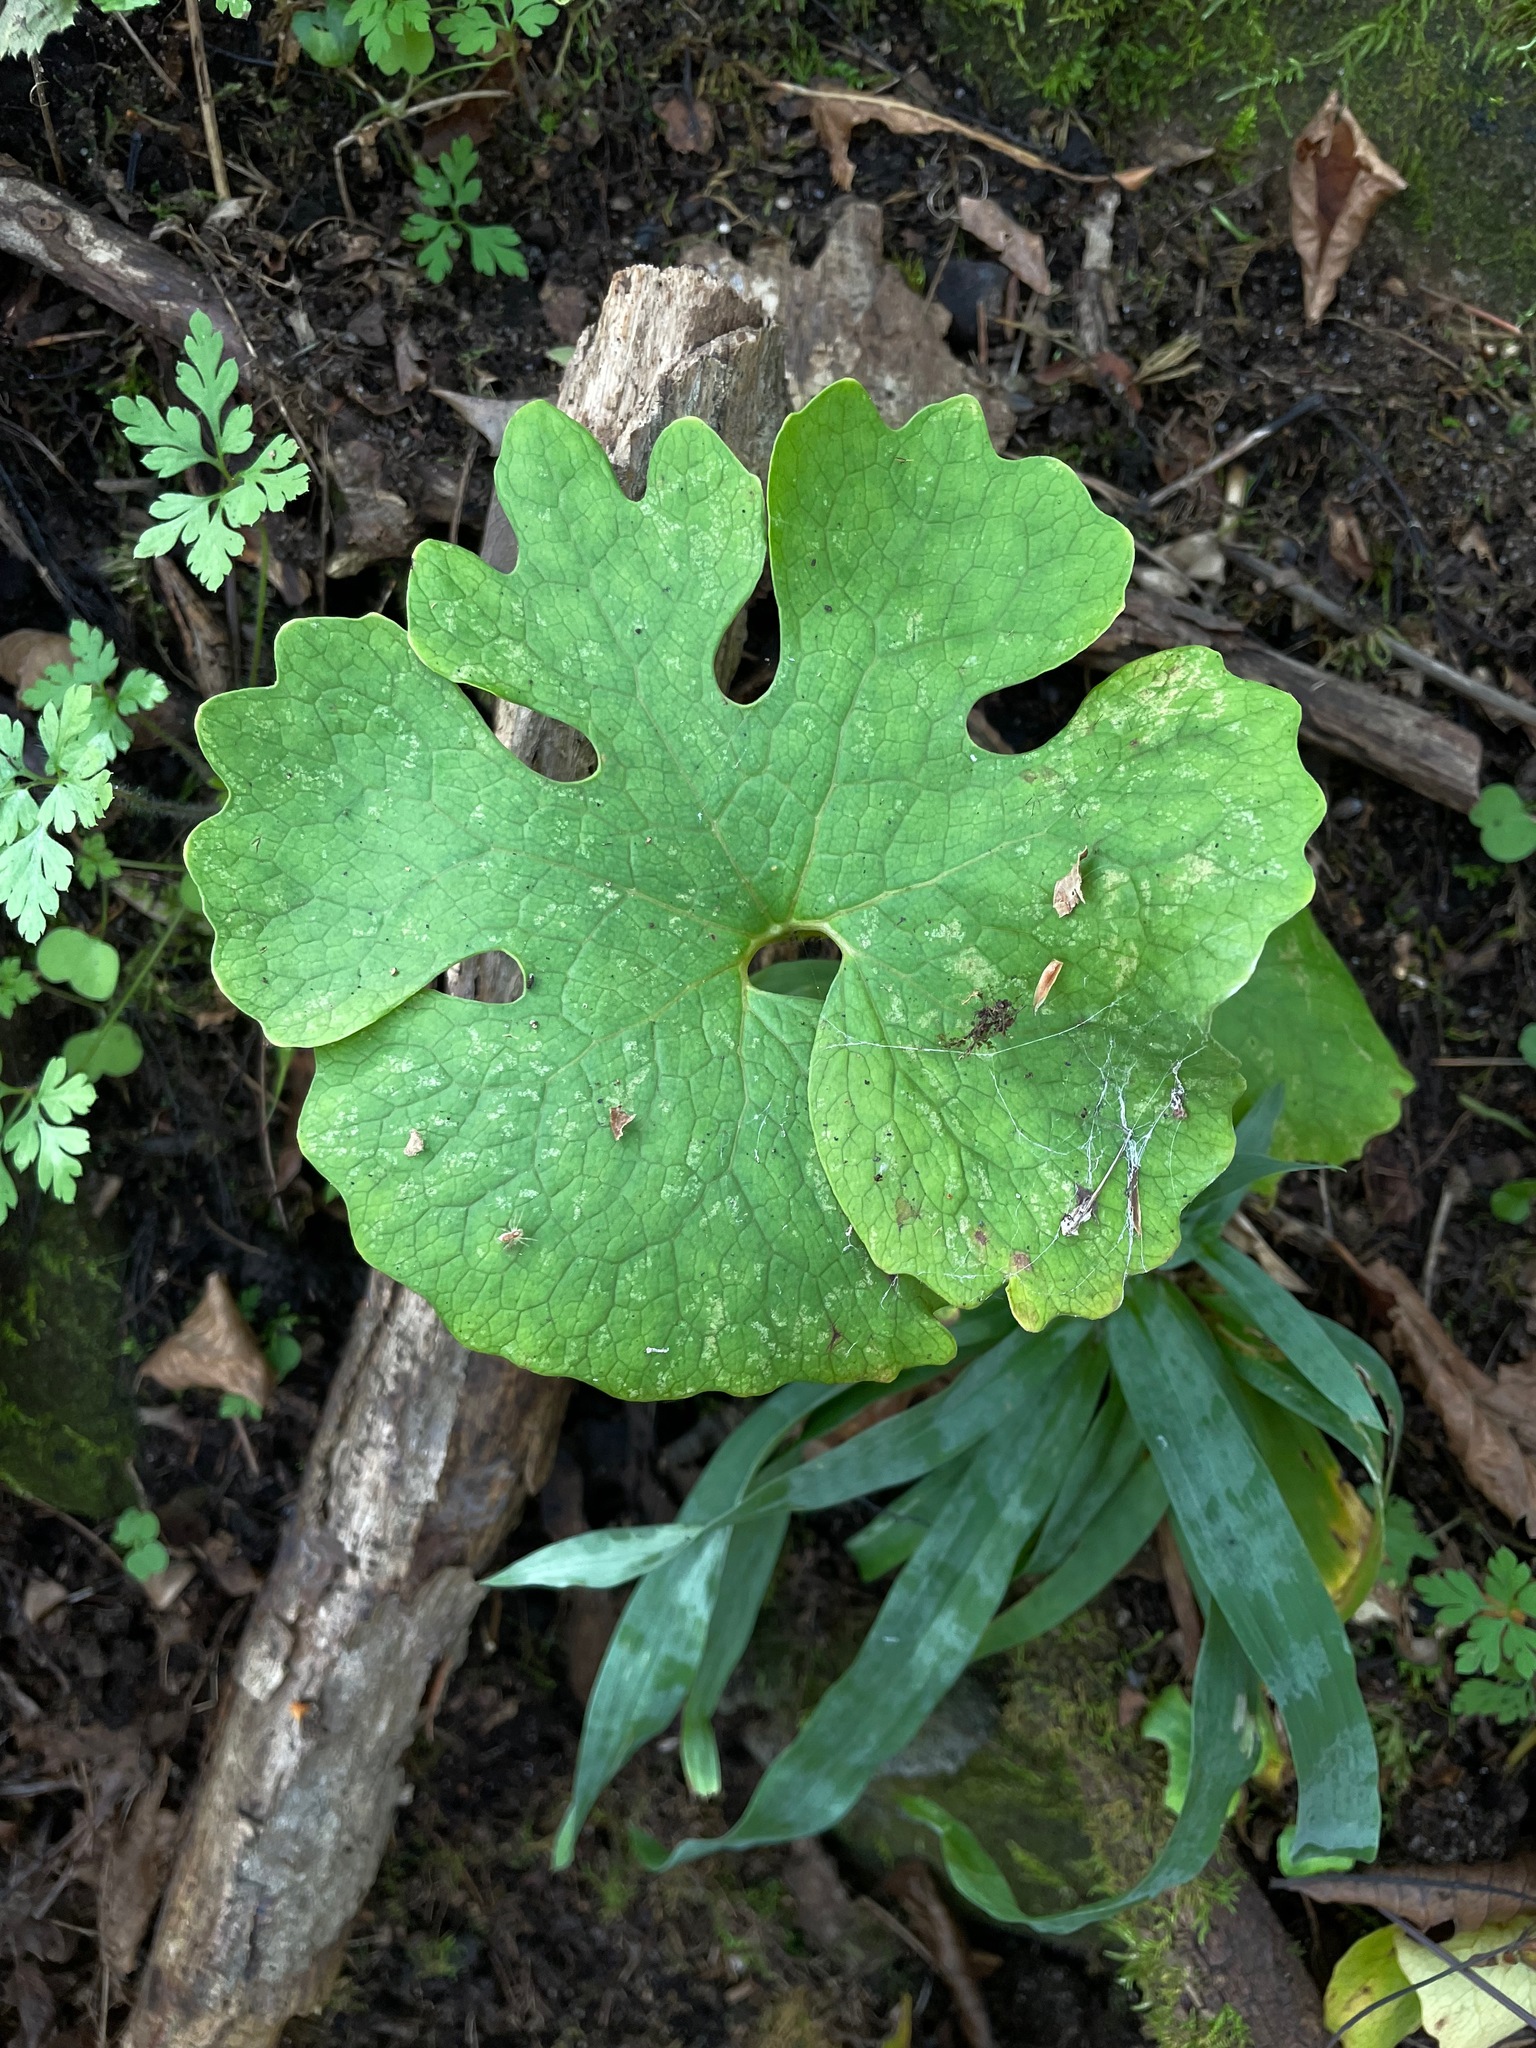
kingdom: Plantae
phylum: Tracheophyta
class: Magnoliopsida
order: Ranunculales
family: Papaveraceae
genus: Sanguinaria
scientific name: Sanguinaria canadensis
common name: Bloodroot
